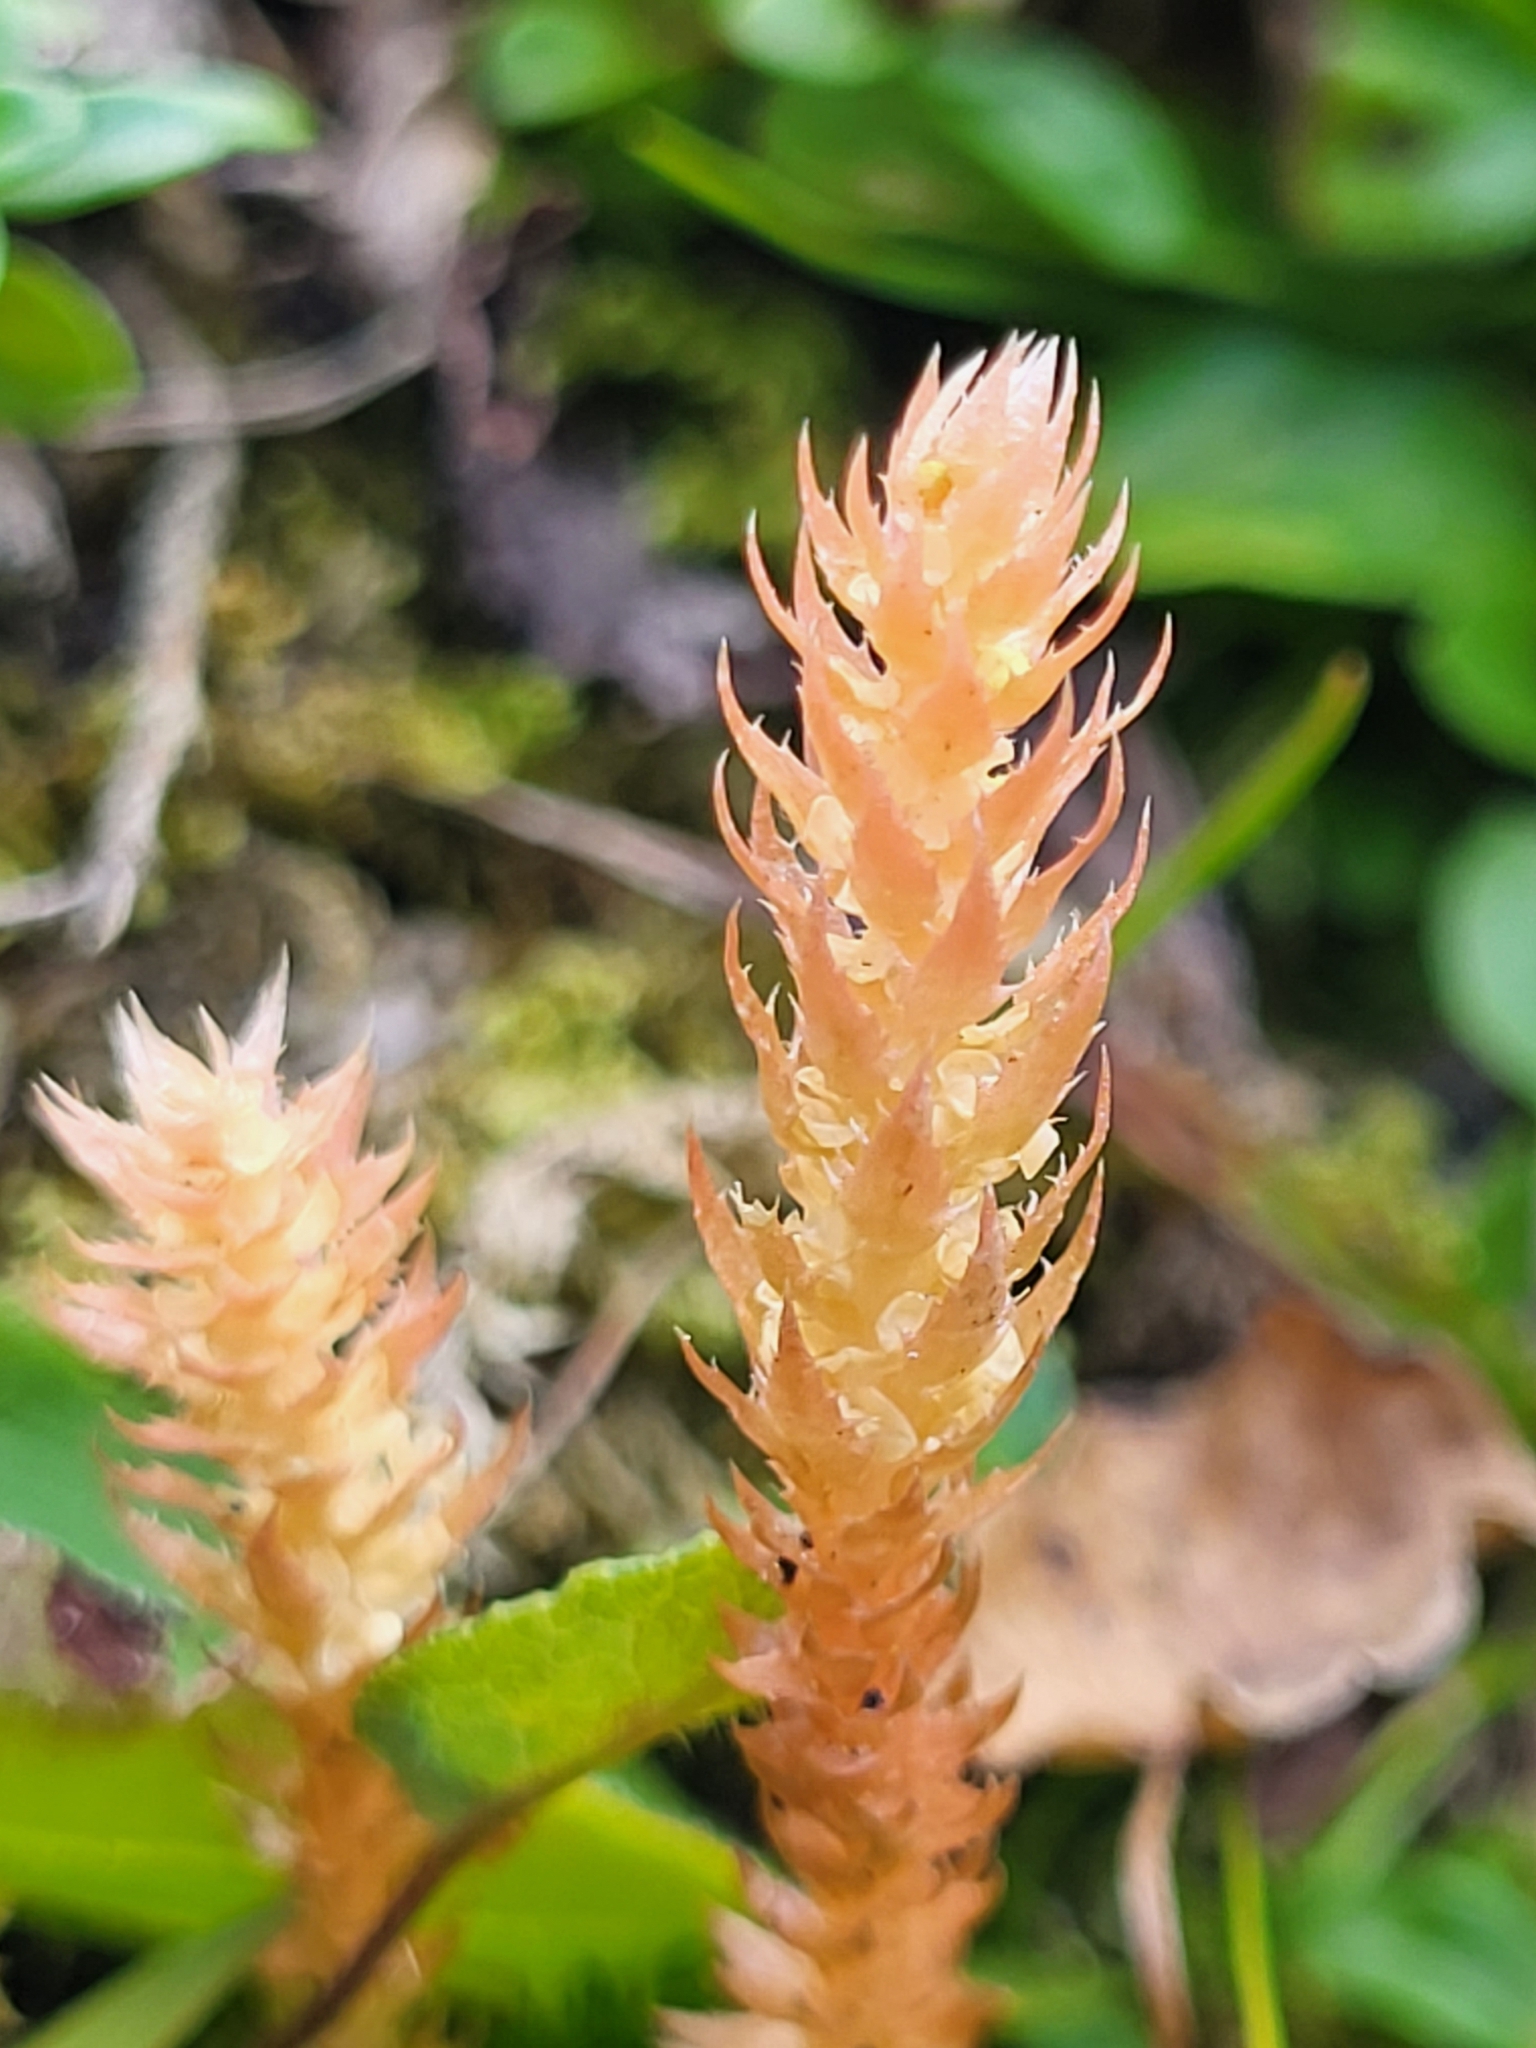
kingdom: Plantae
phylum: Tracheophyta
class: Lycopodiopsida
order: Selaginellales
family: Selaginellaceae
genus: Selaginella
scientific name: Selaginella selaginoides
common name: Prickly mountain-moss
